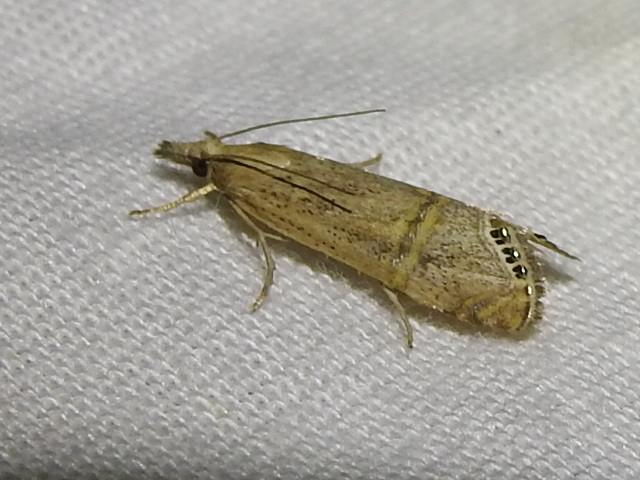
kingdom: Animalia
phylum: Arthropoda
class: Insecta
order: Lepidoptera
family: Crambidae
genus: Euchromius
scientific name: Euchromius ocellea
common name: Necklace veneer moth
